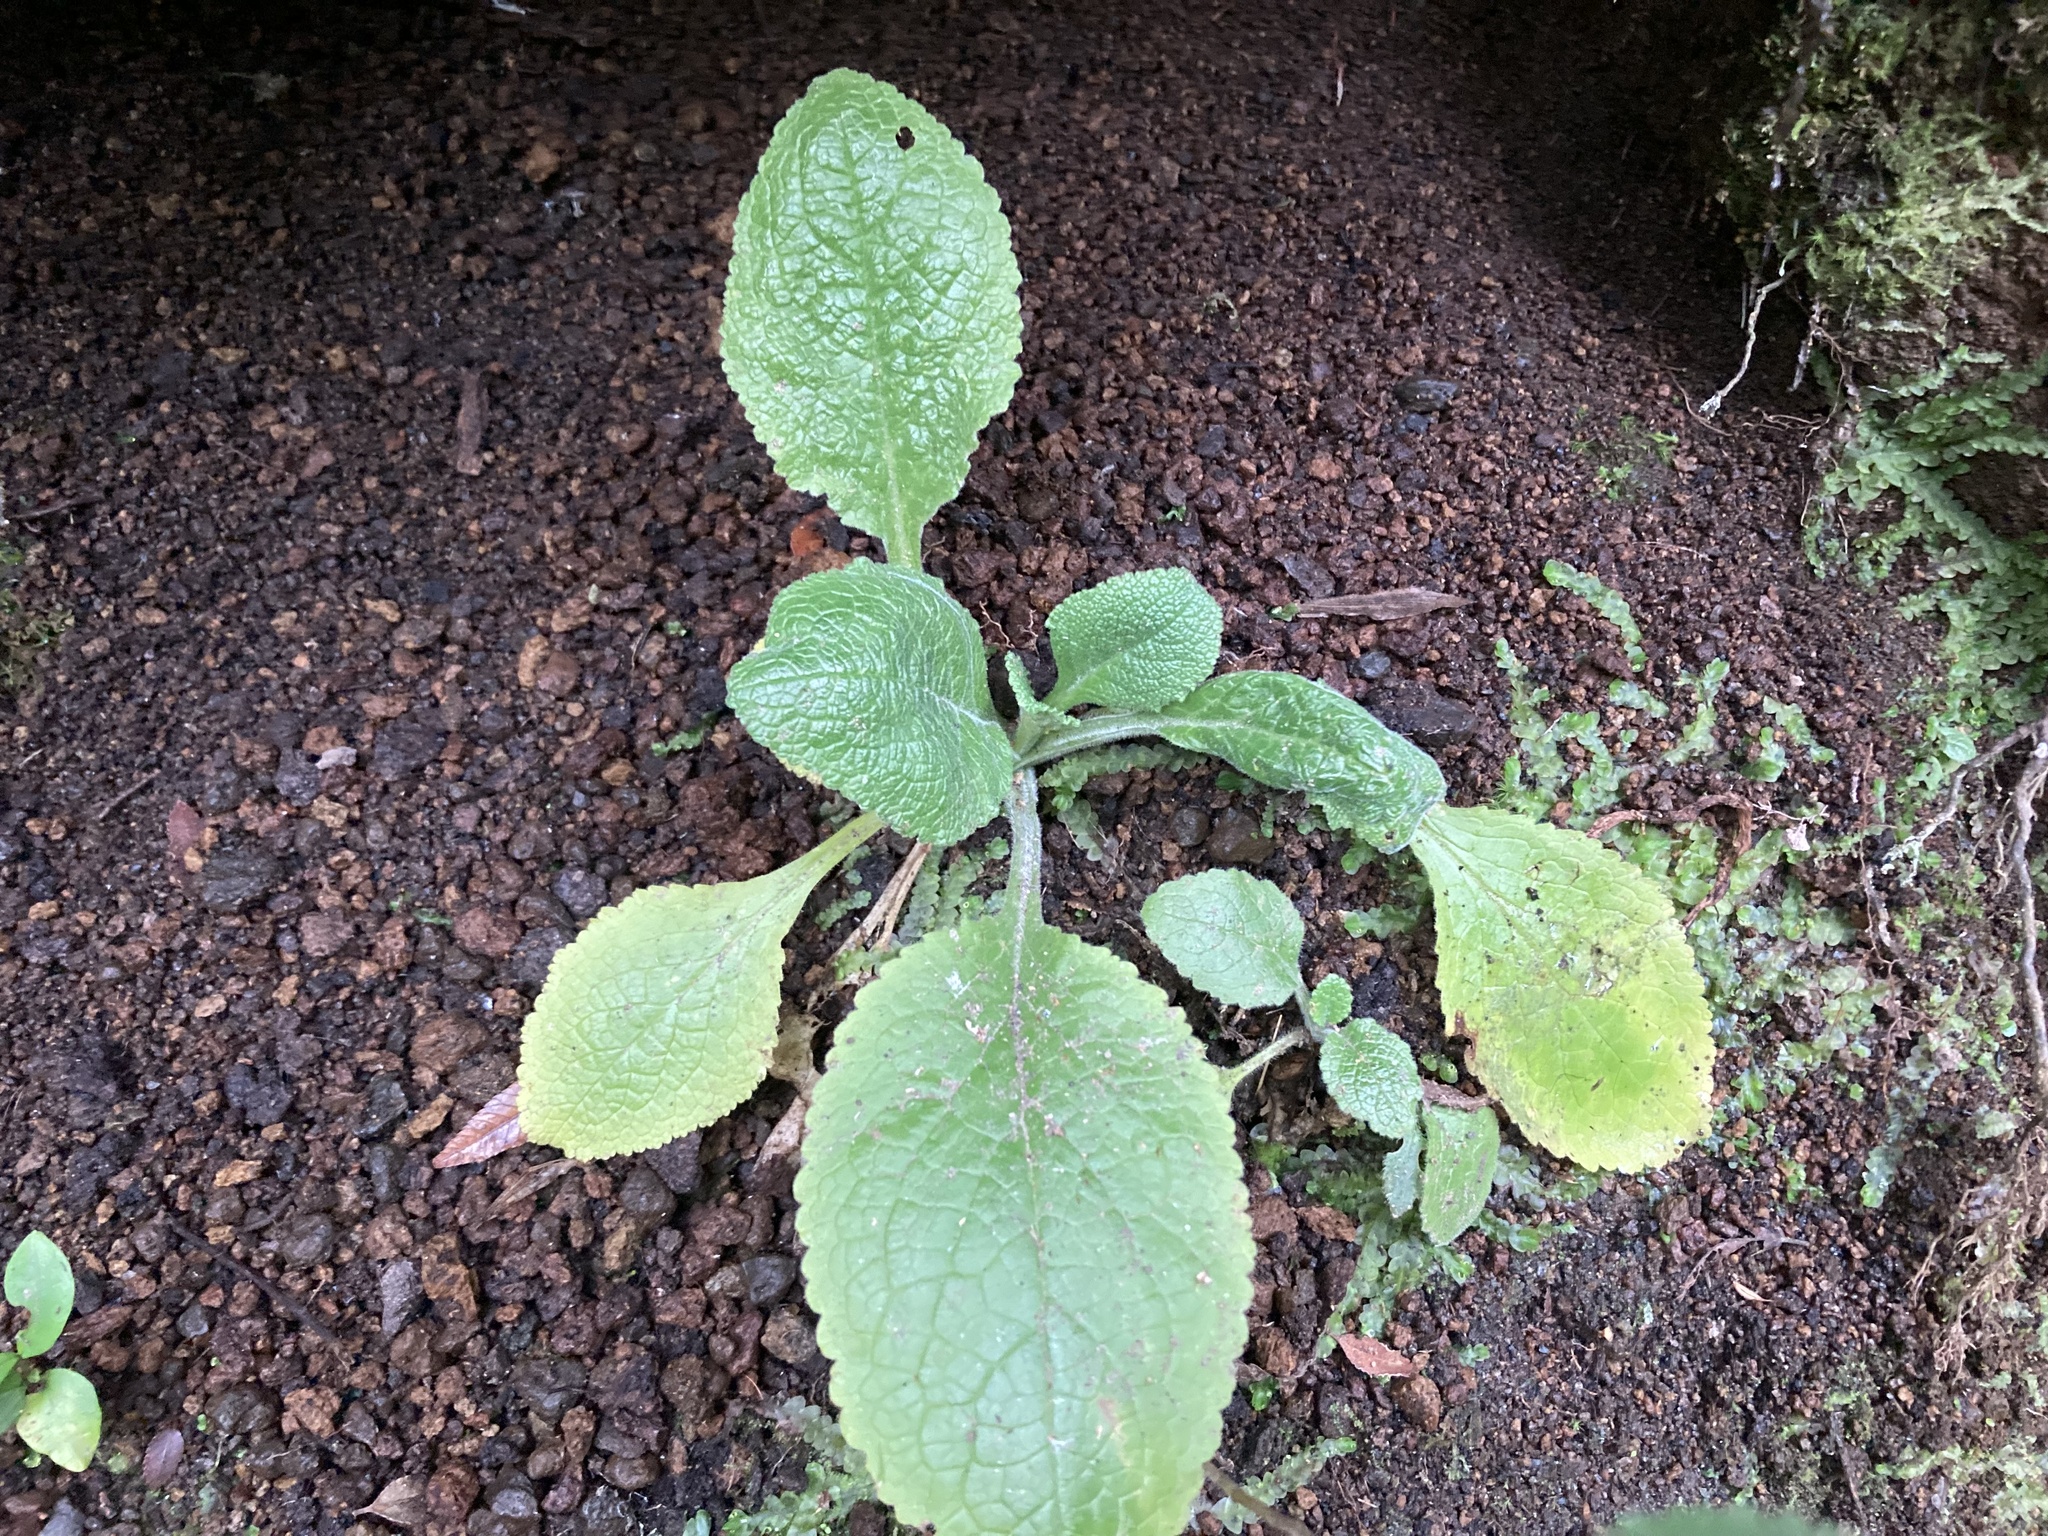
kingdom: Plantae
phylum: Tracheophyta
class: Magnoliopsida
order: Lamiales
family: Plantaginaceae
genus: Digitalis
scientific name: Digitalis purpurea
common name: Foxglove
